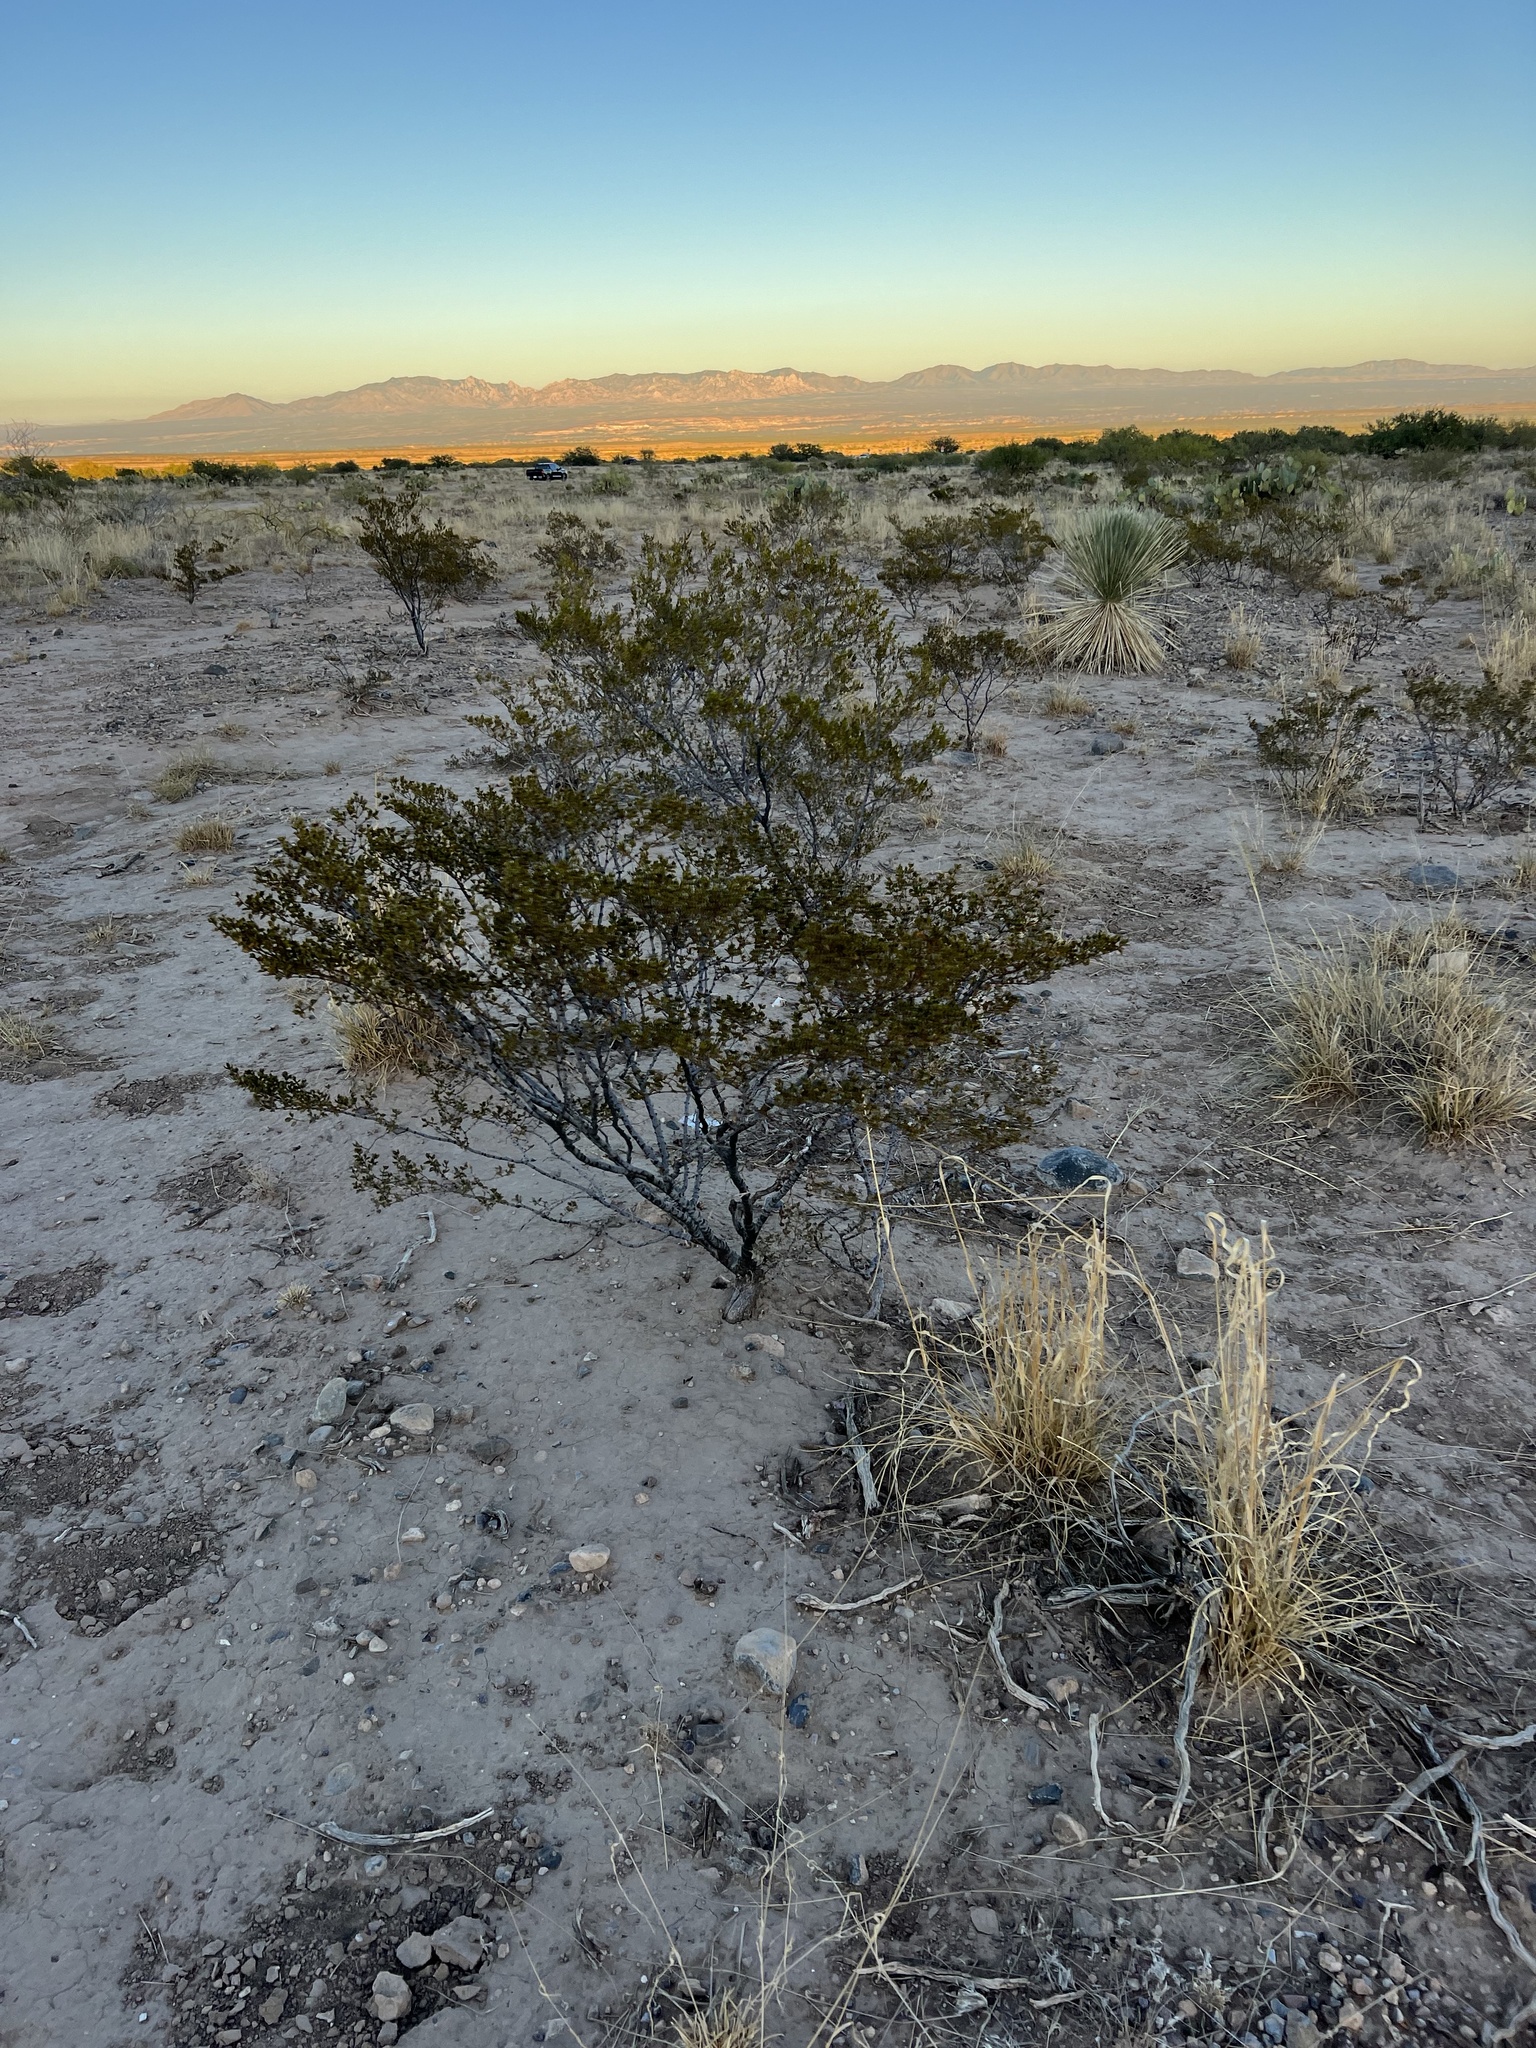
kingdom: Plantae
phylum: Tracheophyta
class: Magnoliopsida
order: Zygophyllales
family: Zygophyllaceae
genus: Larrea
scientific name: Larrea tridentata
